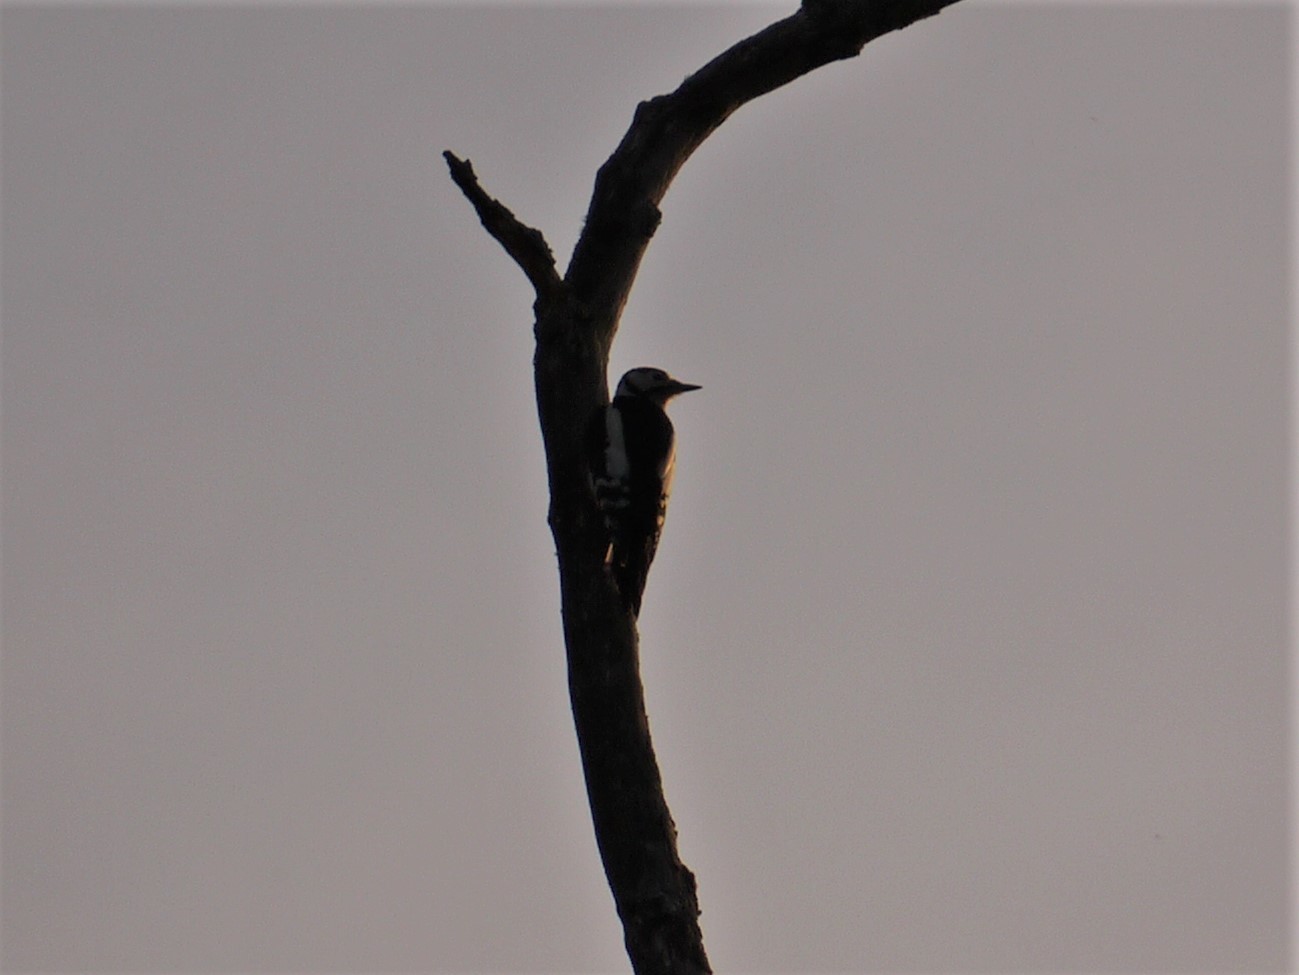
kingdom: Animalia
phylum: Chordata
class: Aves
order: Piciformes
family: Picidae
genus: Dendrocopos
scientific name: Dendrocopos major
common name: Great spotted woodpecker
